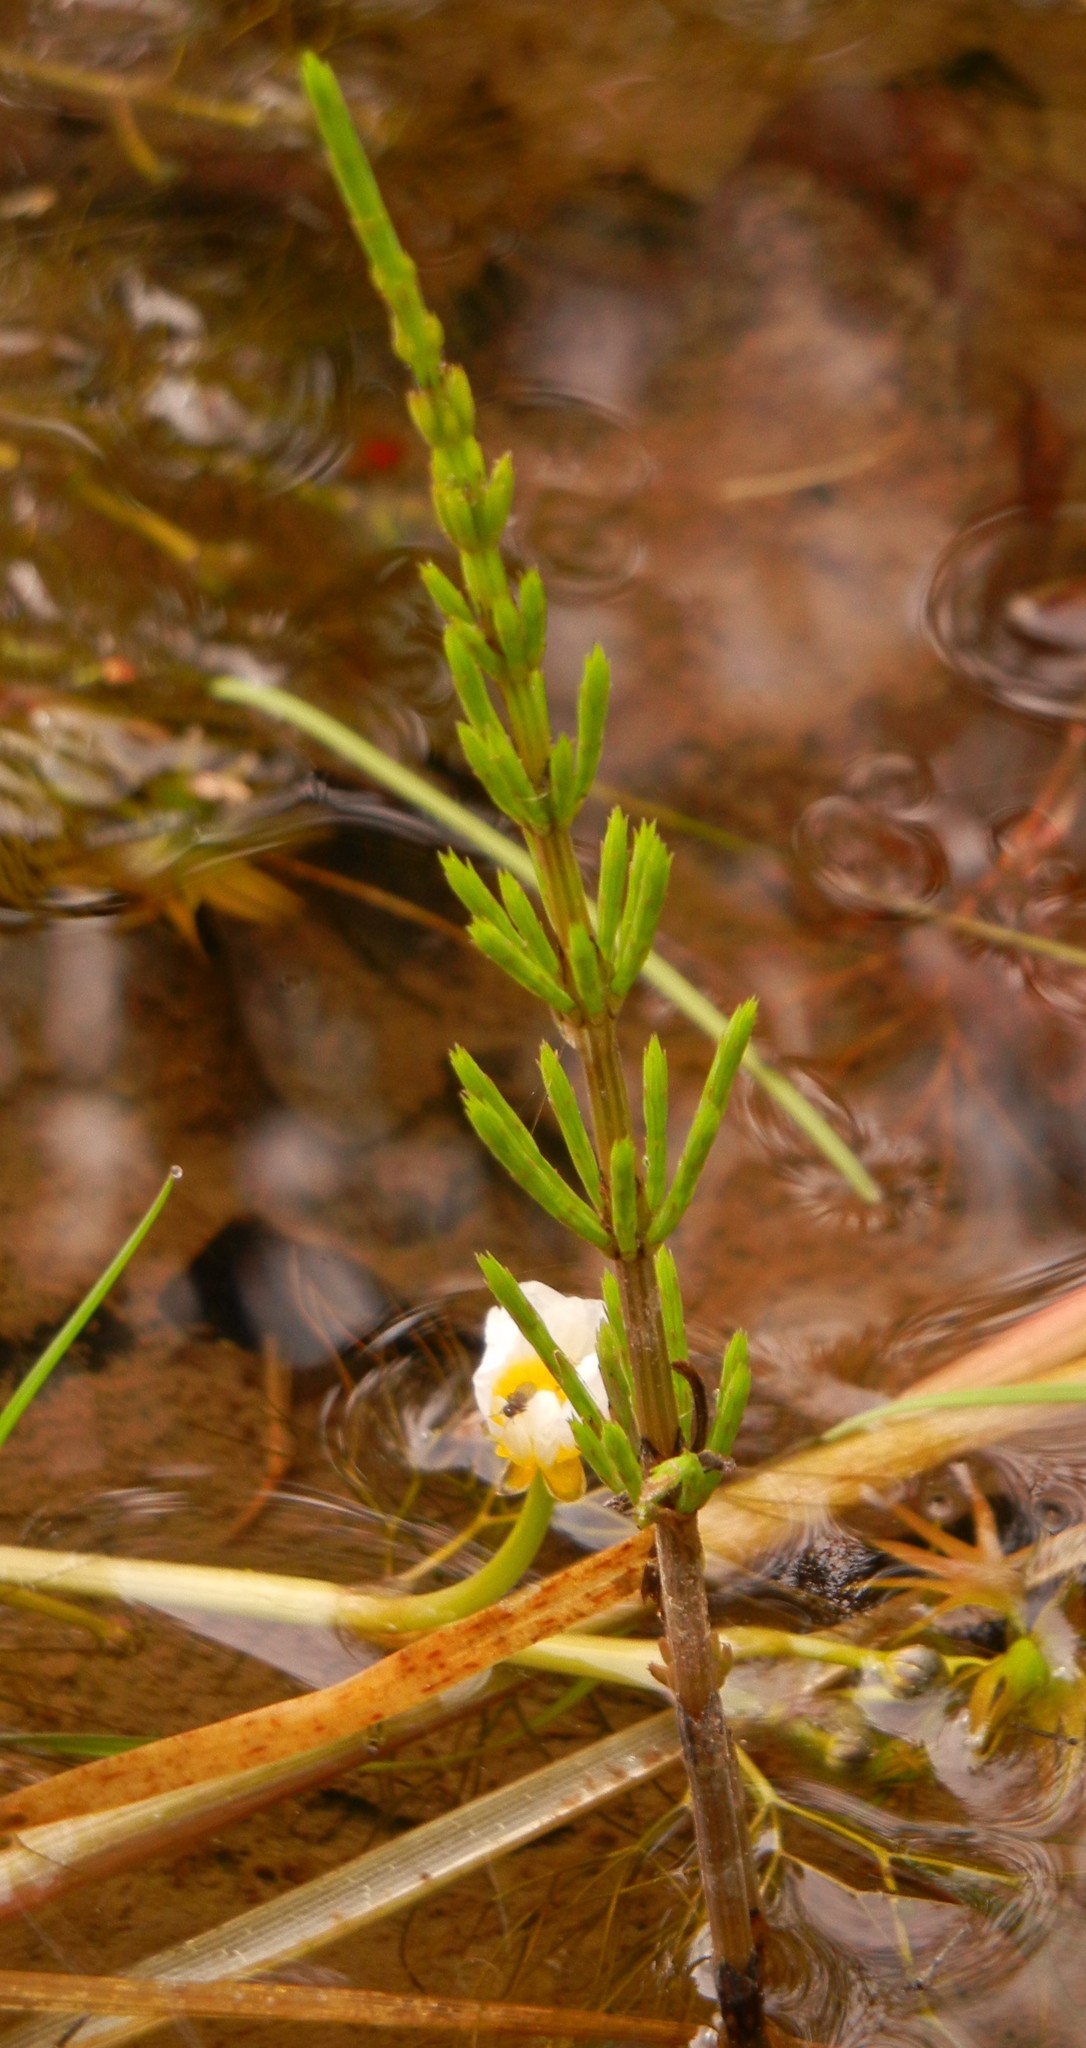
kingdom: Plantae
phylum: Tracheophyta
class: Polypodiopsida
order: Equisetales
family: Equisetaceae
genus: Equisetum
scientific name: Equisetum arvense
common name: Field horsetail
